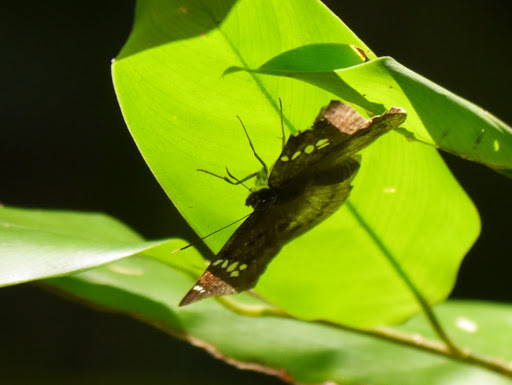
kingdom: Animalia
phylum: Arthropoda
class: Insecta
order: Lepidoptera
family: Hesperiidae
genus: Tagiades
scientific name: Tagiades flesus
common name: Clouded flat
